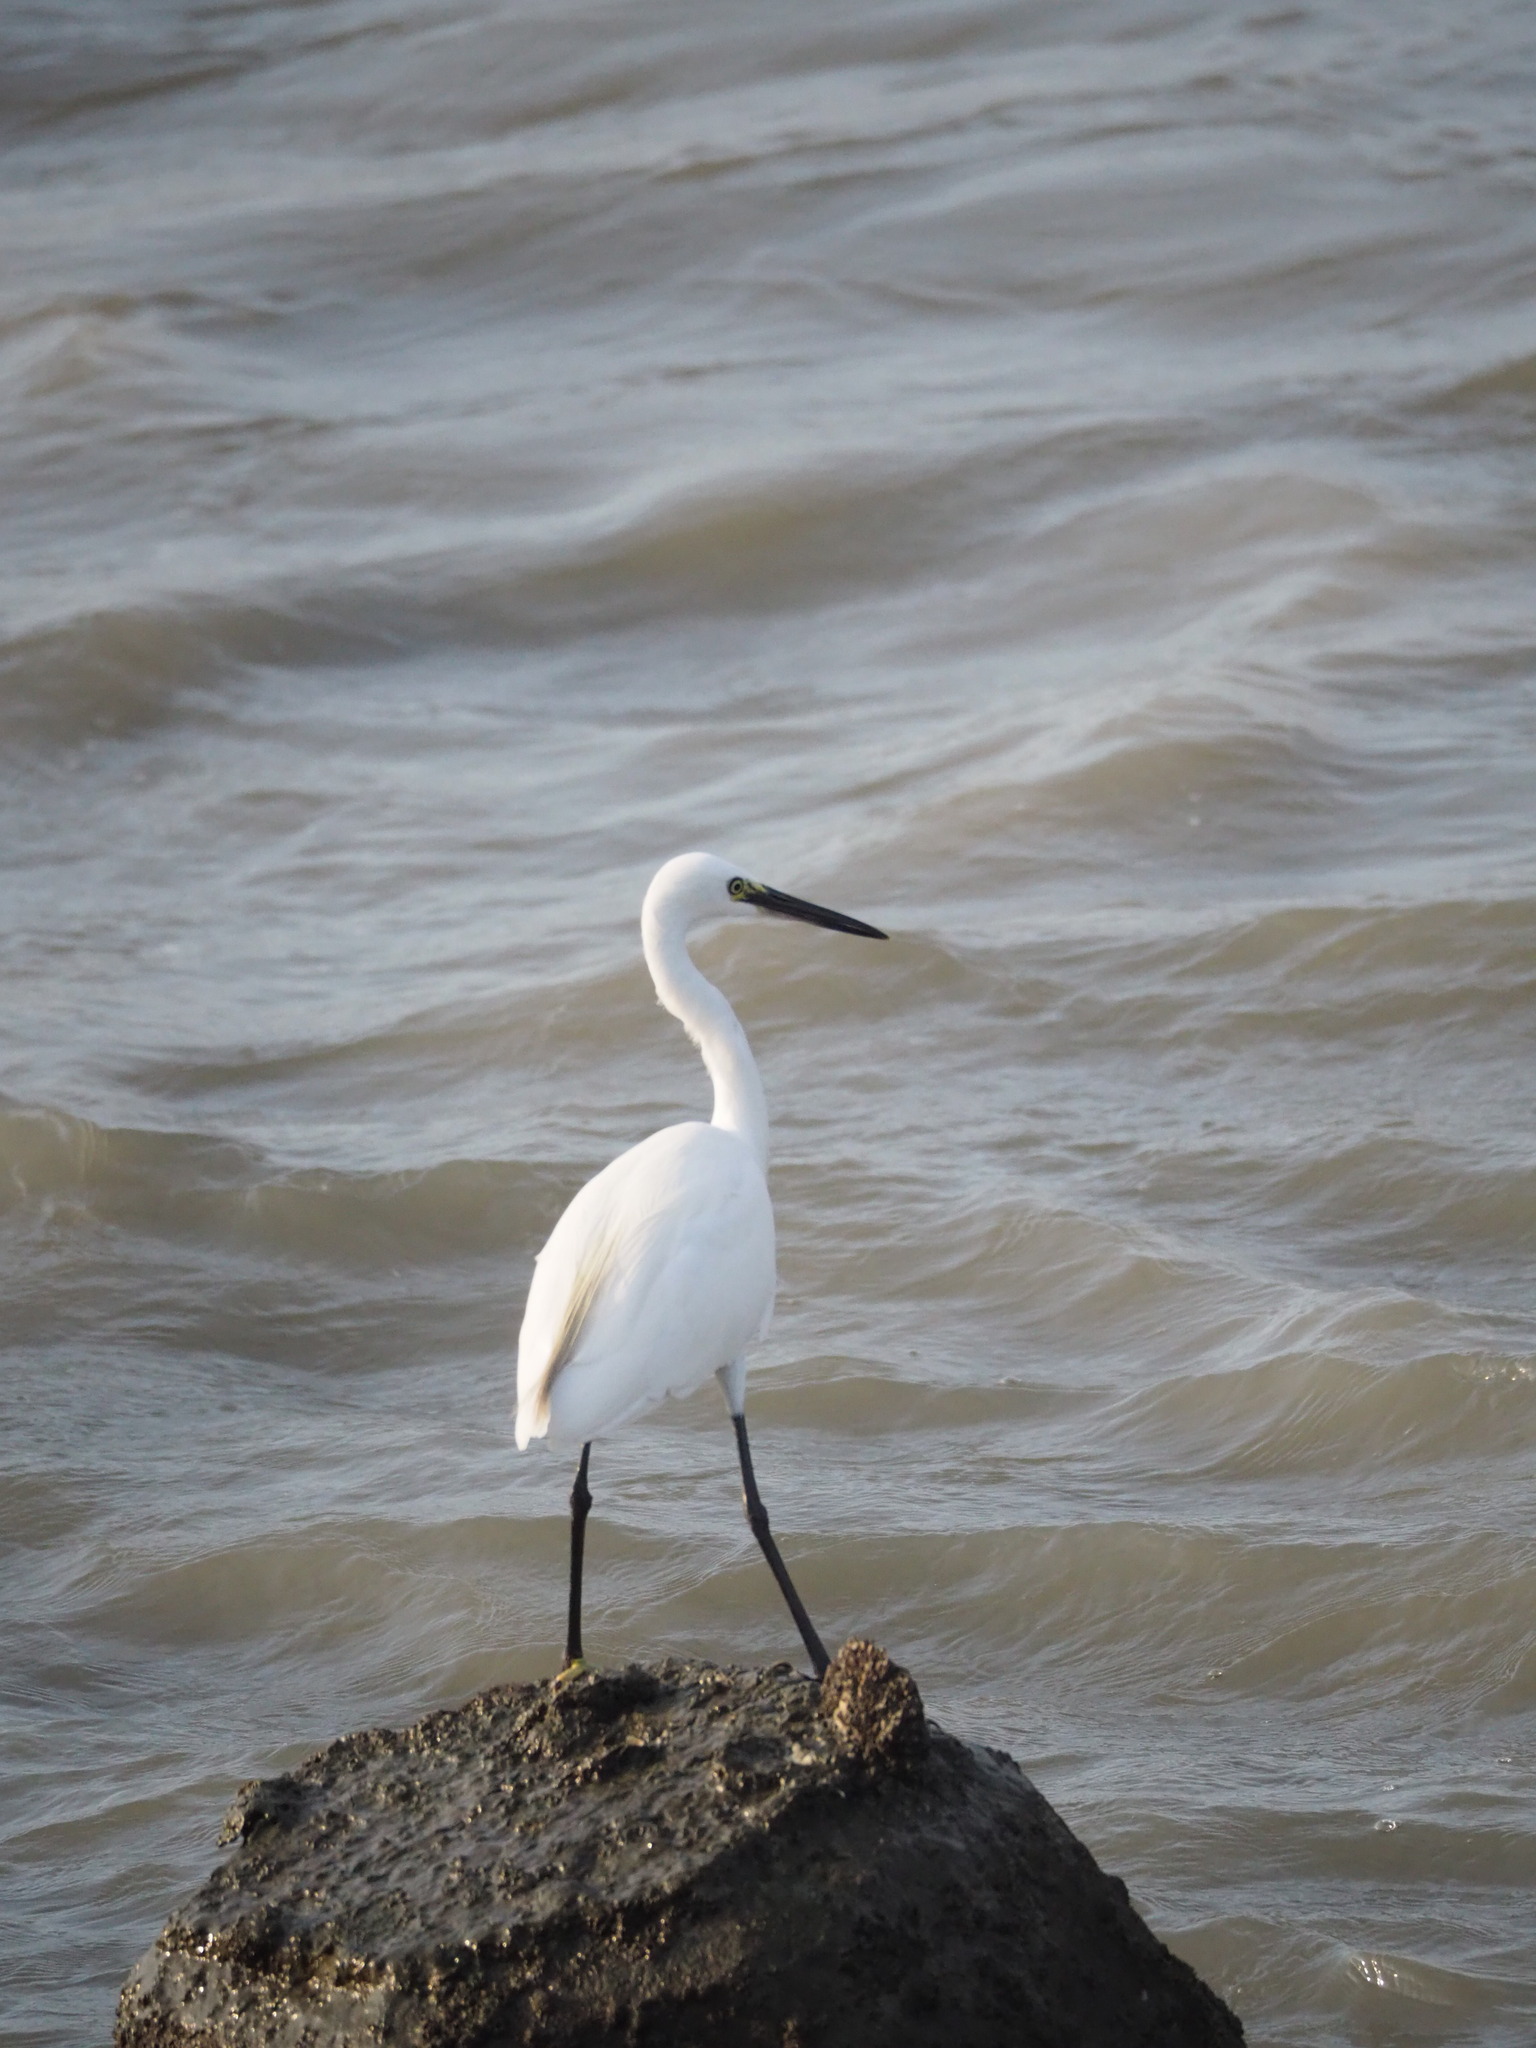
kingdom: Animalia
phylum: Chordata
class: Aves
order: Pelecaniformes
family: Ardeidae
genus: Egretta
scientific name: Egretta garzetta
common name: Little egret
